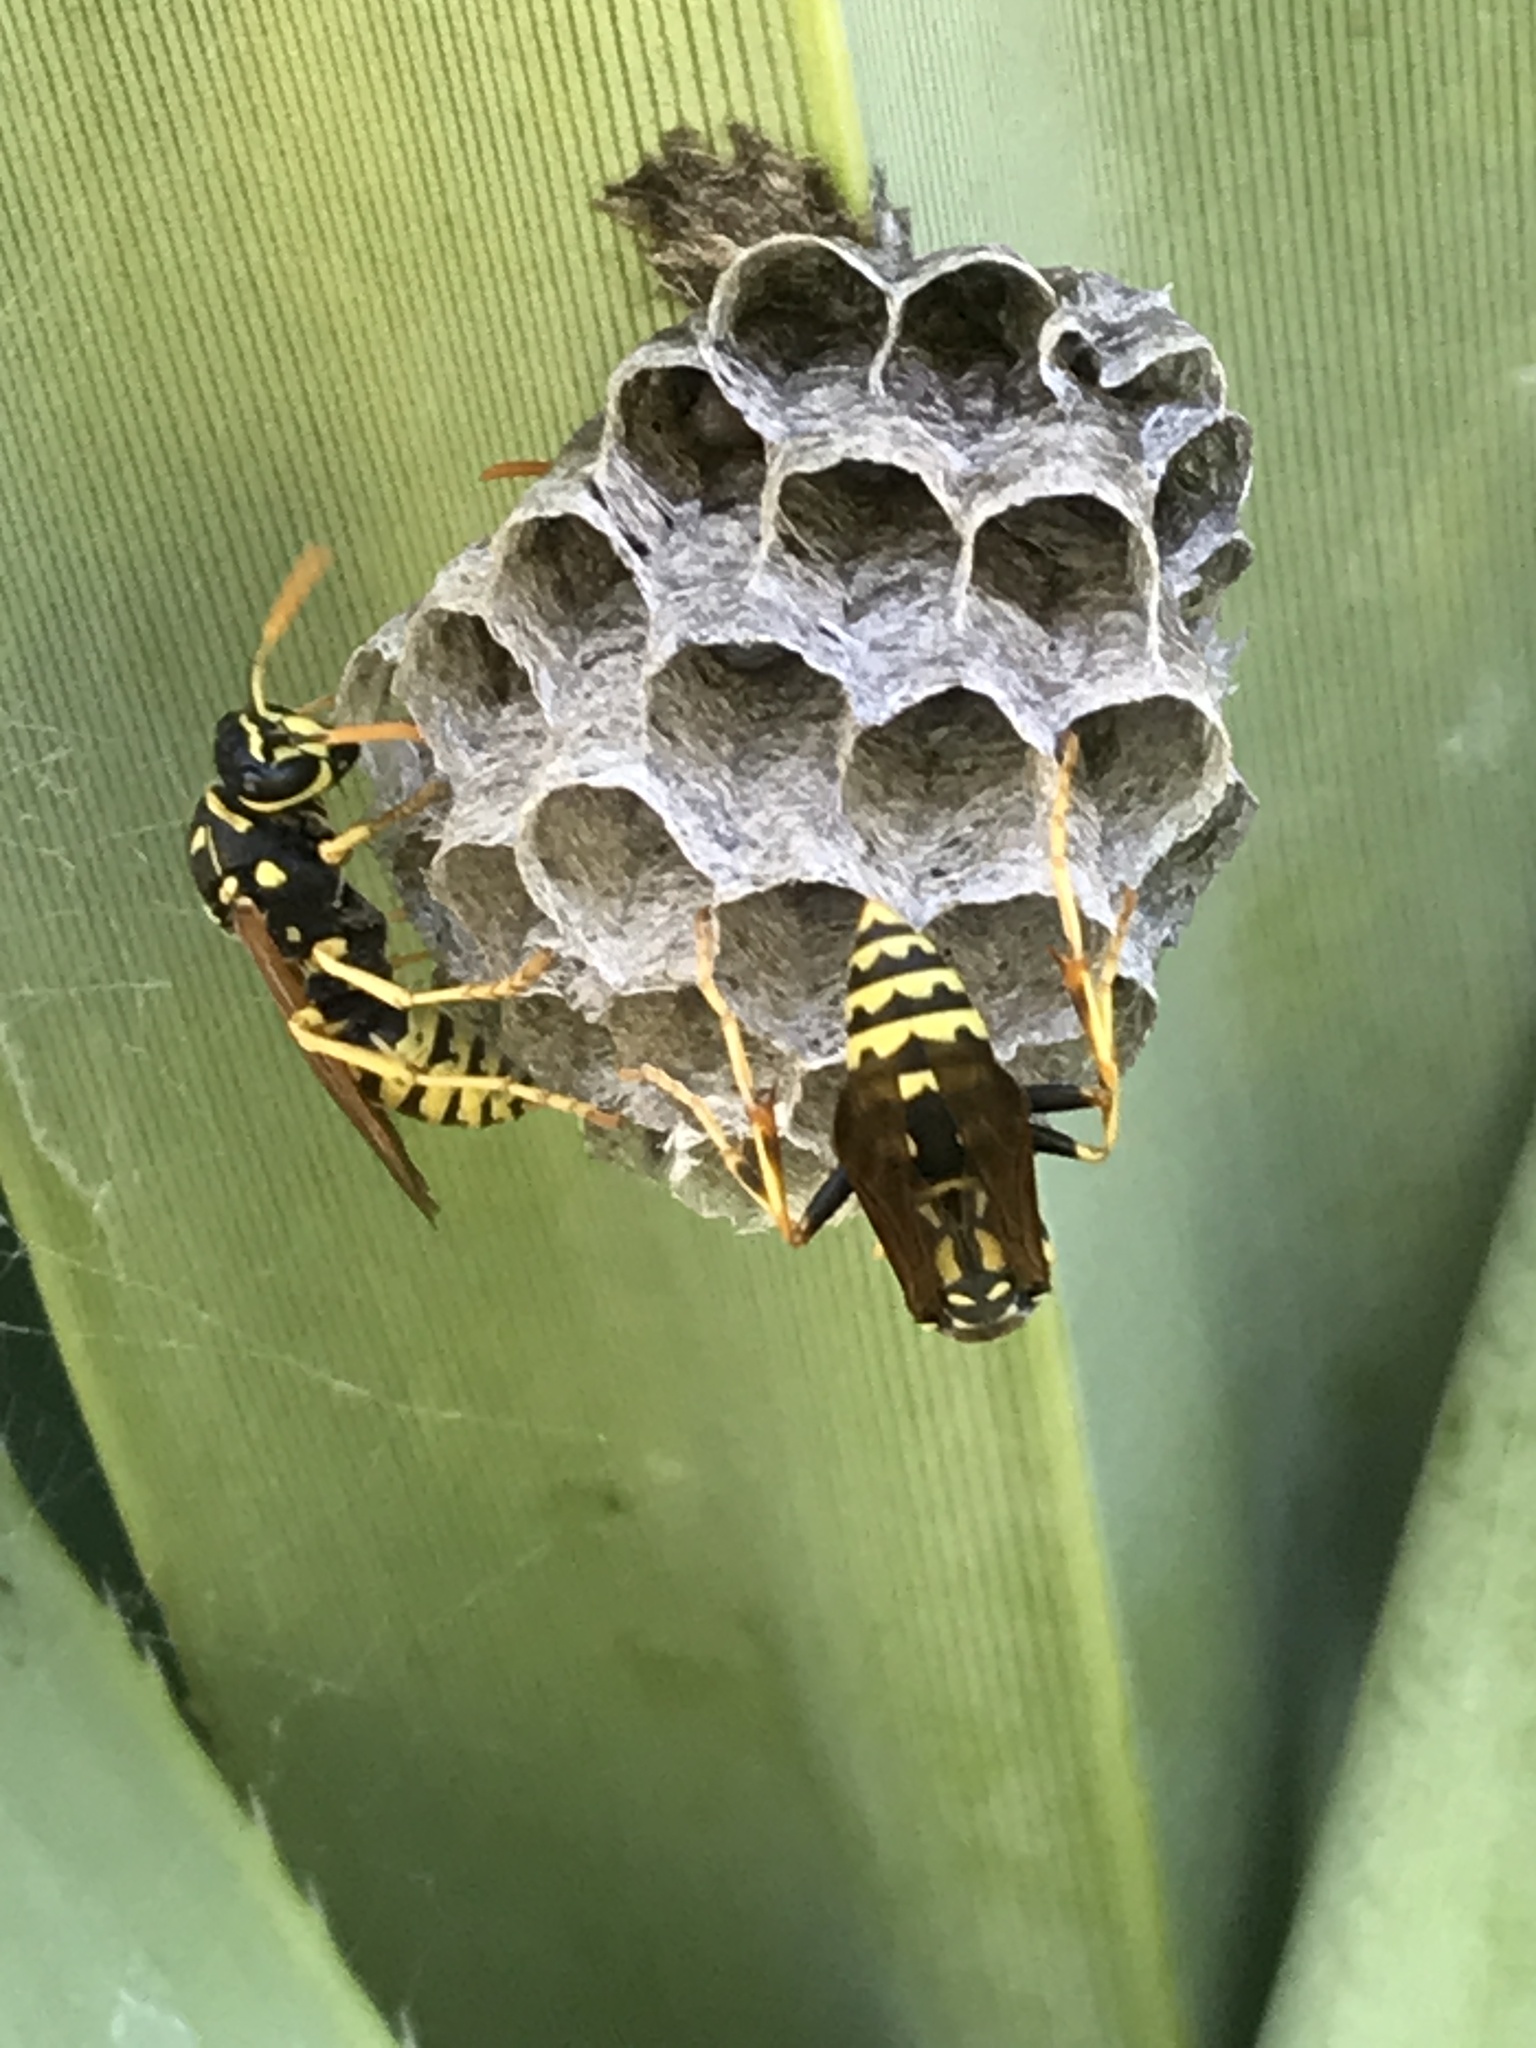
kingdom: Animalia
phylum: Arthropoda
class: Insecta
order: Hymenoptera
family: Eumenidae
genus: Polistes
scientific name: Polistes dominula
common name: Paper wasp
